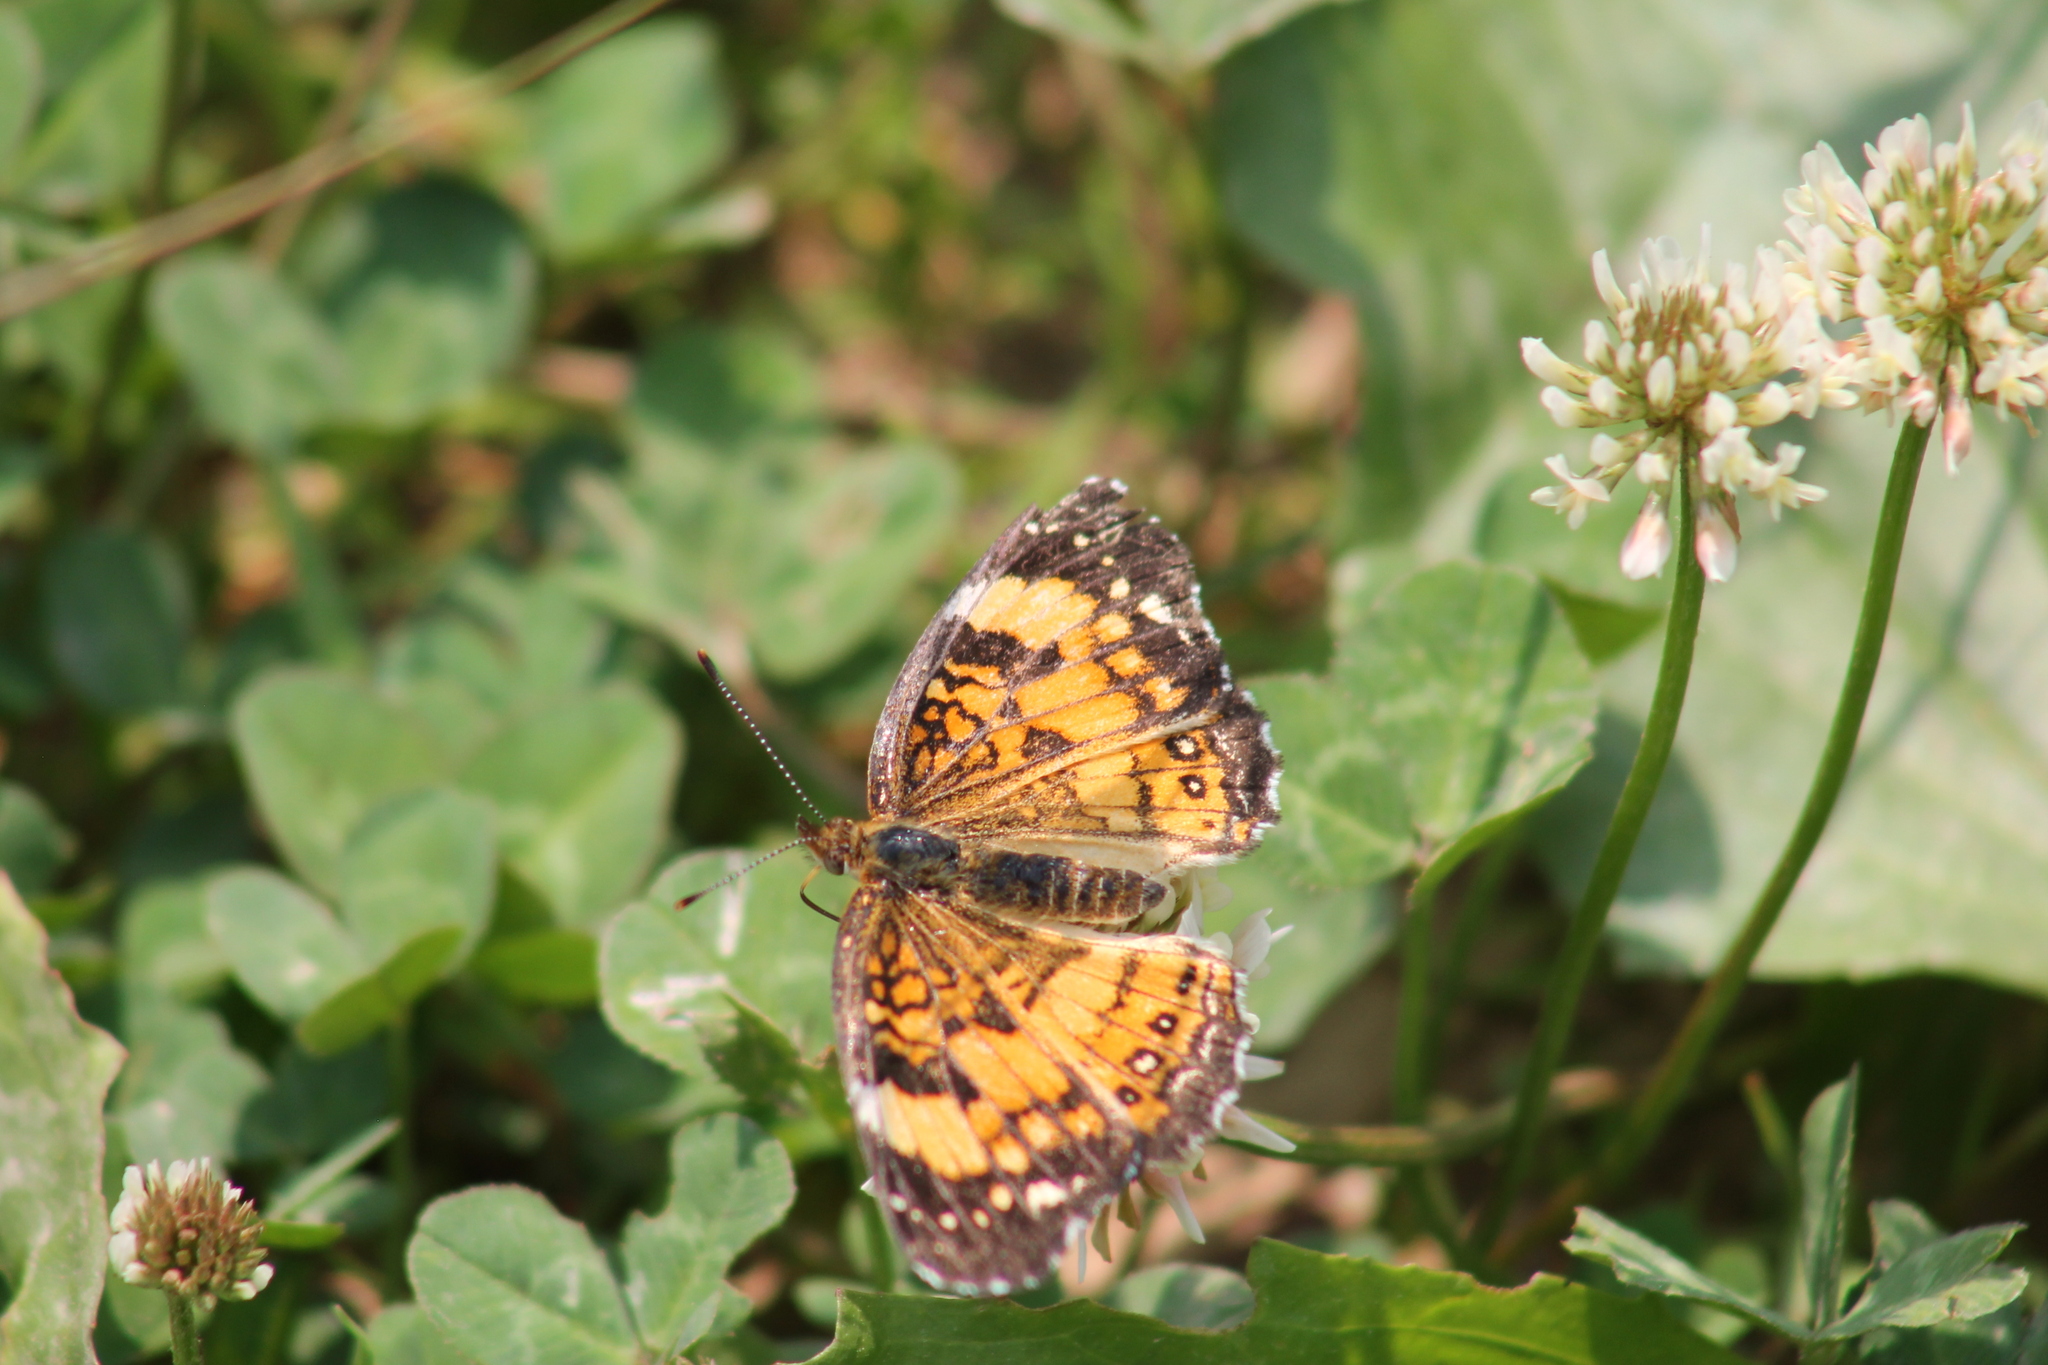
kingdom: Animalia
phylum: Arthropoda
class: Insecta
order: Lepidoptera
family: Nymphalidae
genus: Chlosyne
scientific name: Chlosyne nycteis
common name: Silvery checkerspot
